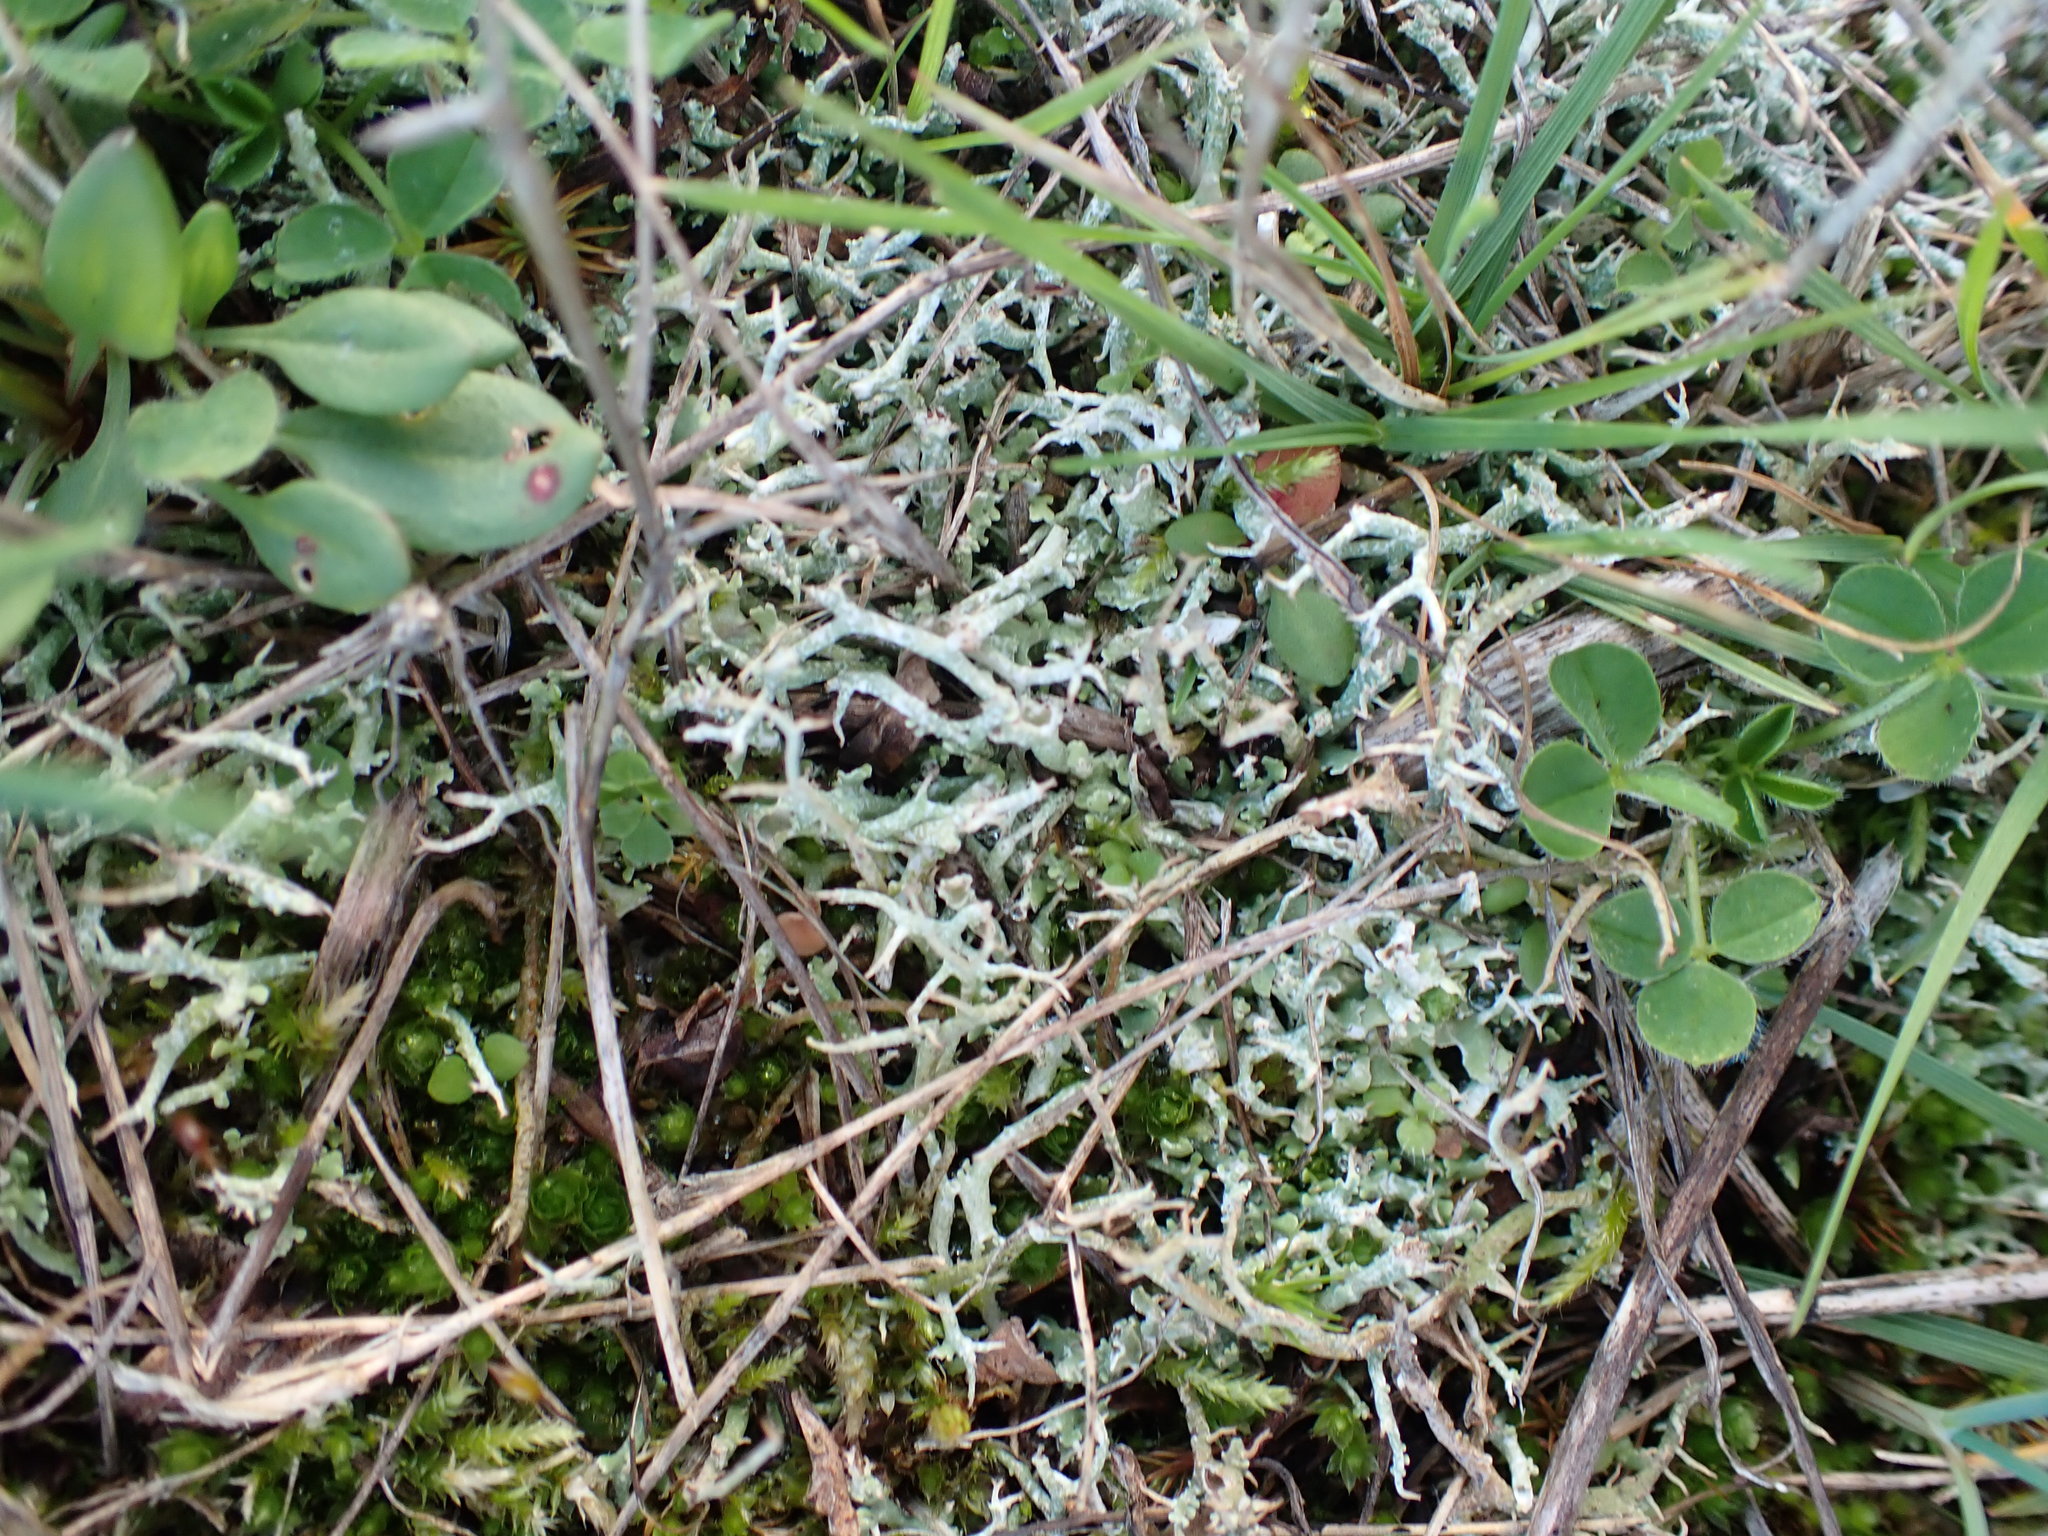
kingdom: Fungi
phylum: Ascomycota
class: Lecanoromycetes
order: Lecanorales
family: Cladoniaceae
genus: Cladonia
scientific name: Cladonia furcata
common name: Many-forked cladonia
